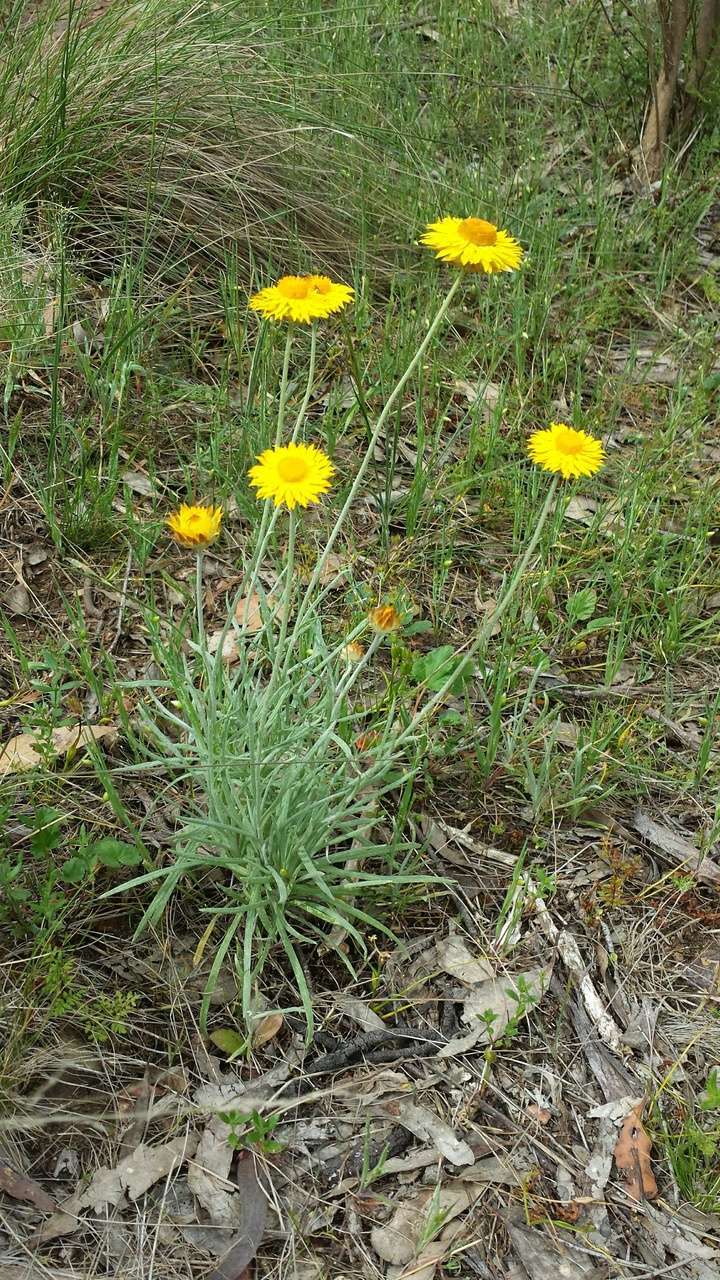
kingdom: Plantae
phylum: Tracheophyta
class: Magnoliopsida
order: Asterales
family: Asteraceae
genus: Leucochrysum
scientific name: Leucochrysum albicans
